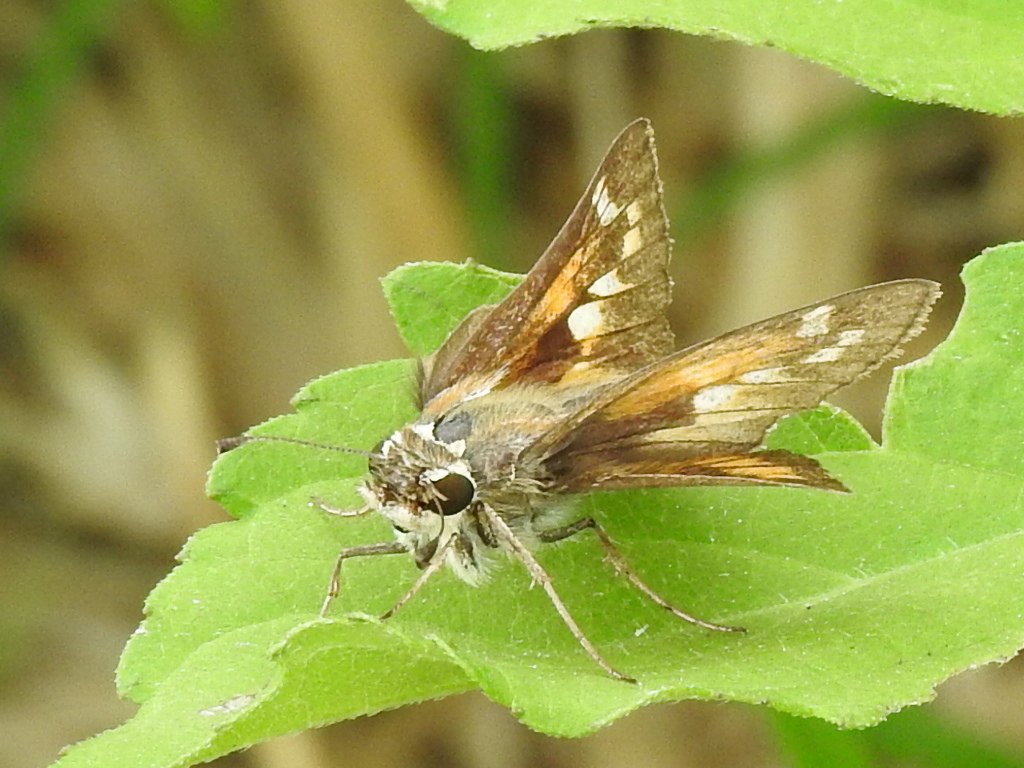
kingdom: Animalia
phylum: Arthropoda
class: Insecta
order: Lepidoptera
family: Hesperiidae
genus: Atalopedes
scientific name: Atalopedes
